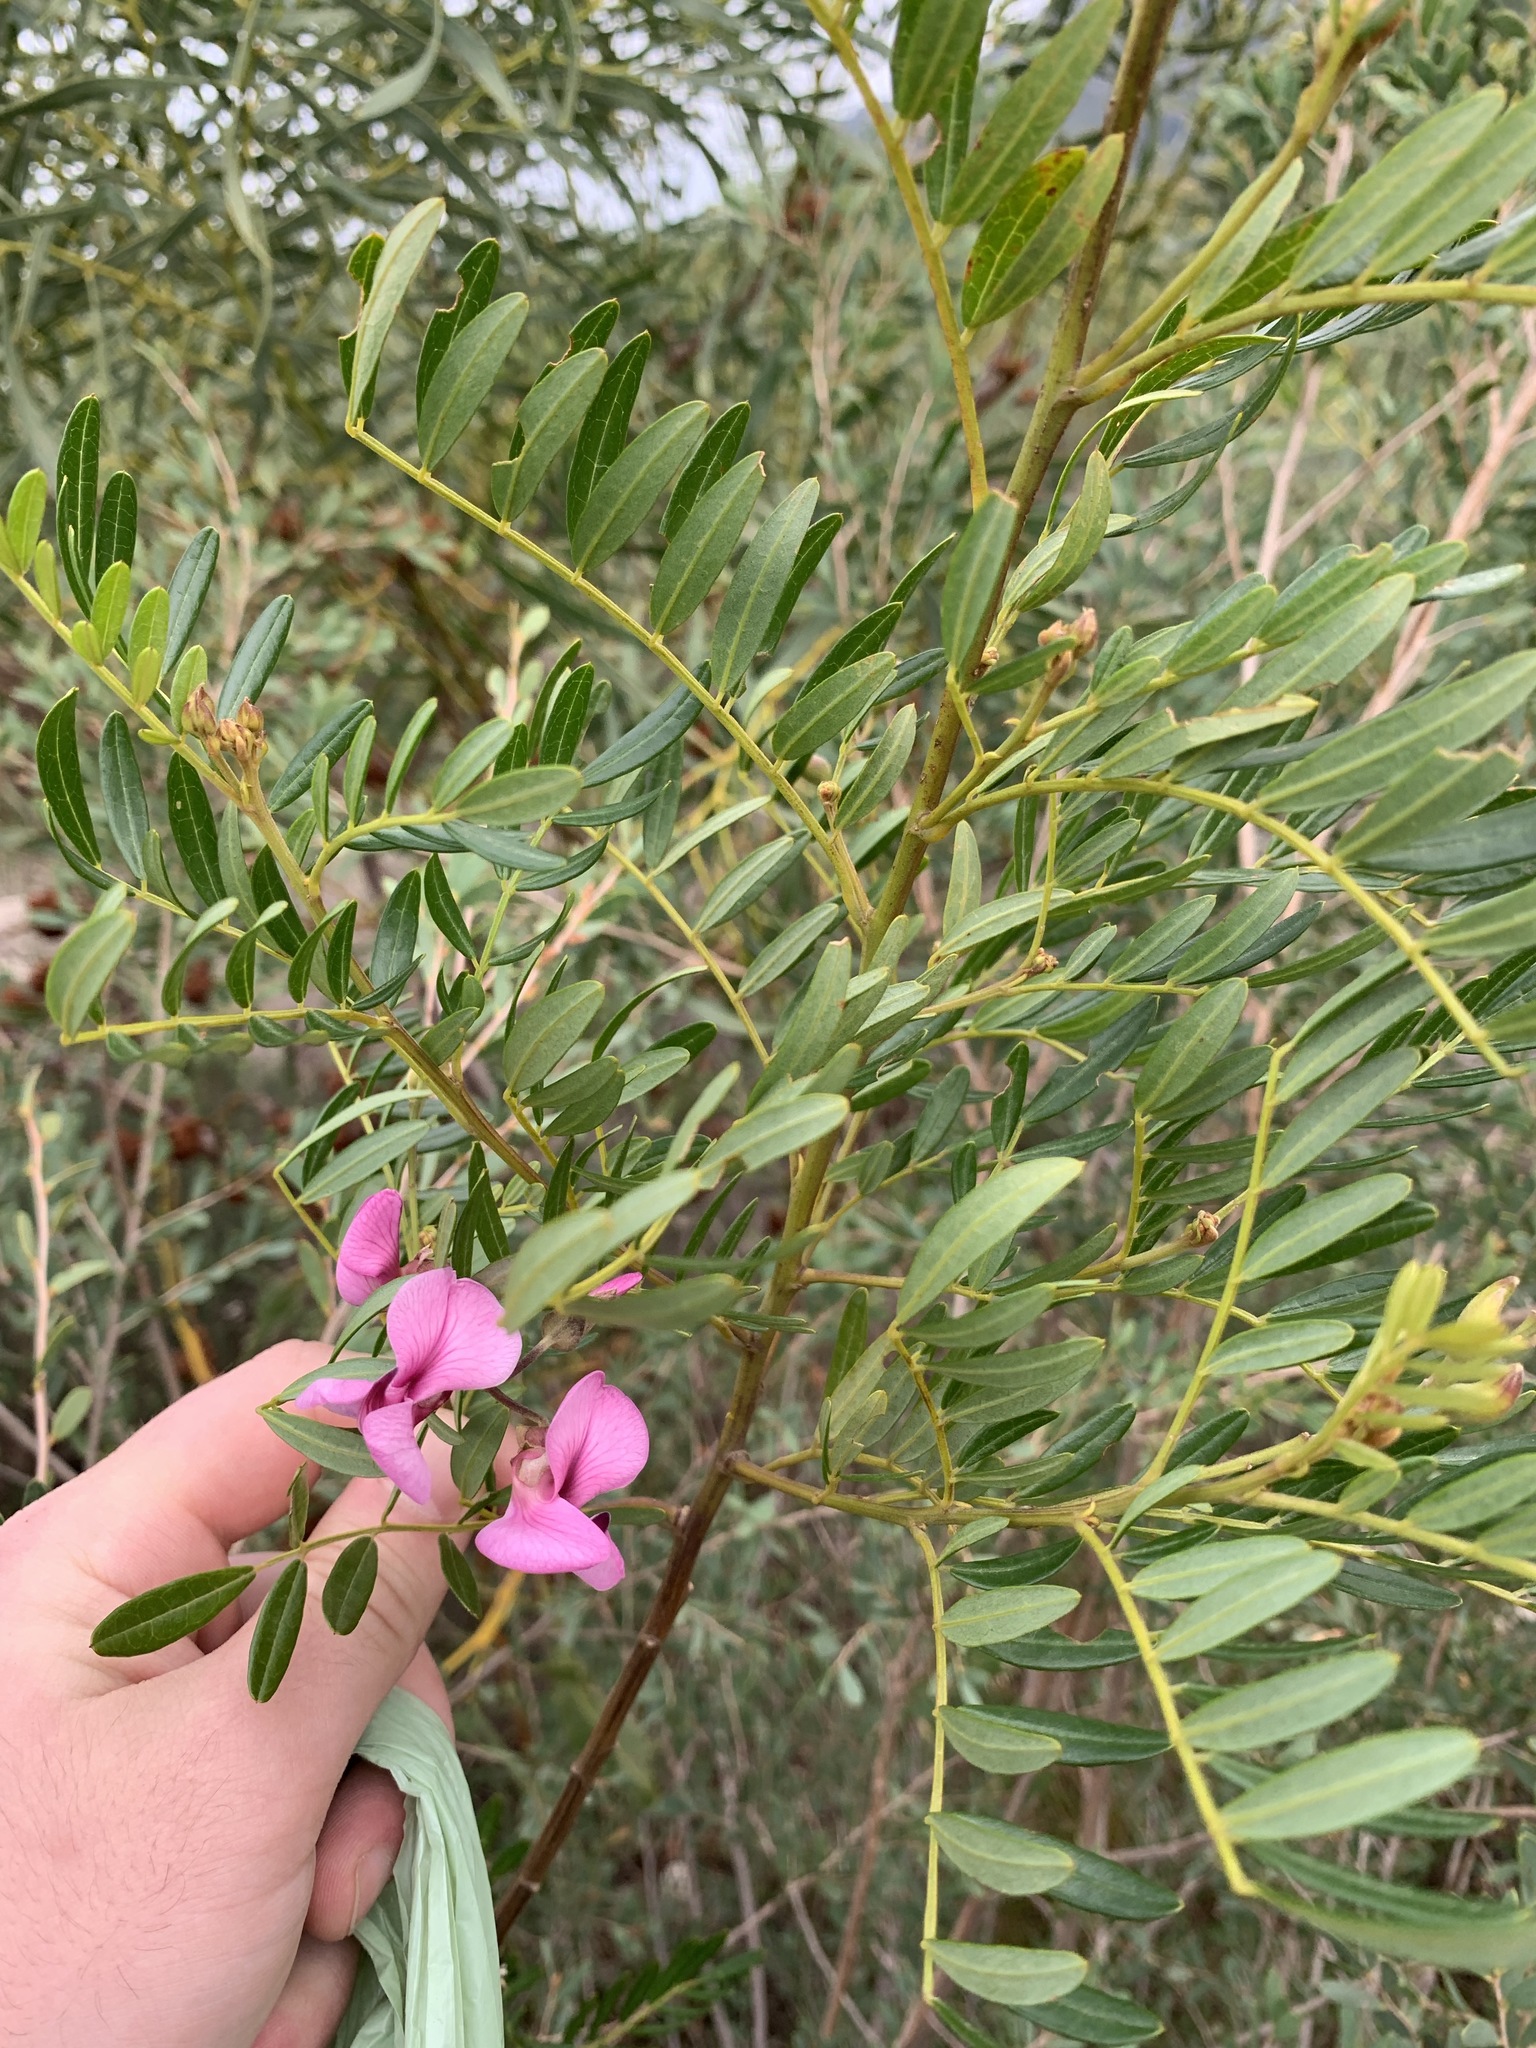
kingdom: Plantae
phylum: Tracheophyta
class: Magnoliopsida
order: Fabales
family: Fabaceae
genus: Virgilia
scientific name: Virgilia oroboides
